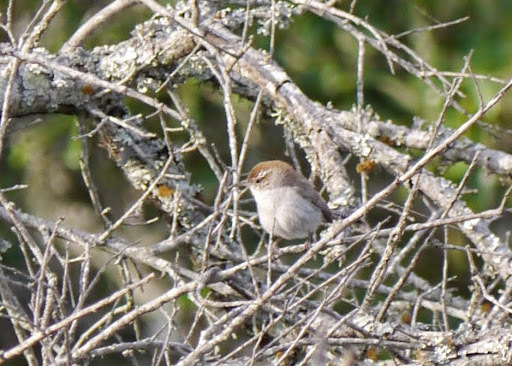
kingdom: Animalia
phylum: Chordata
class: Aves
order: Passeriformes
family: Troglodytidae
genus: Thryomanes
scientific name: Thryomanes bewickii
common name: Bewick's wren
